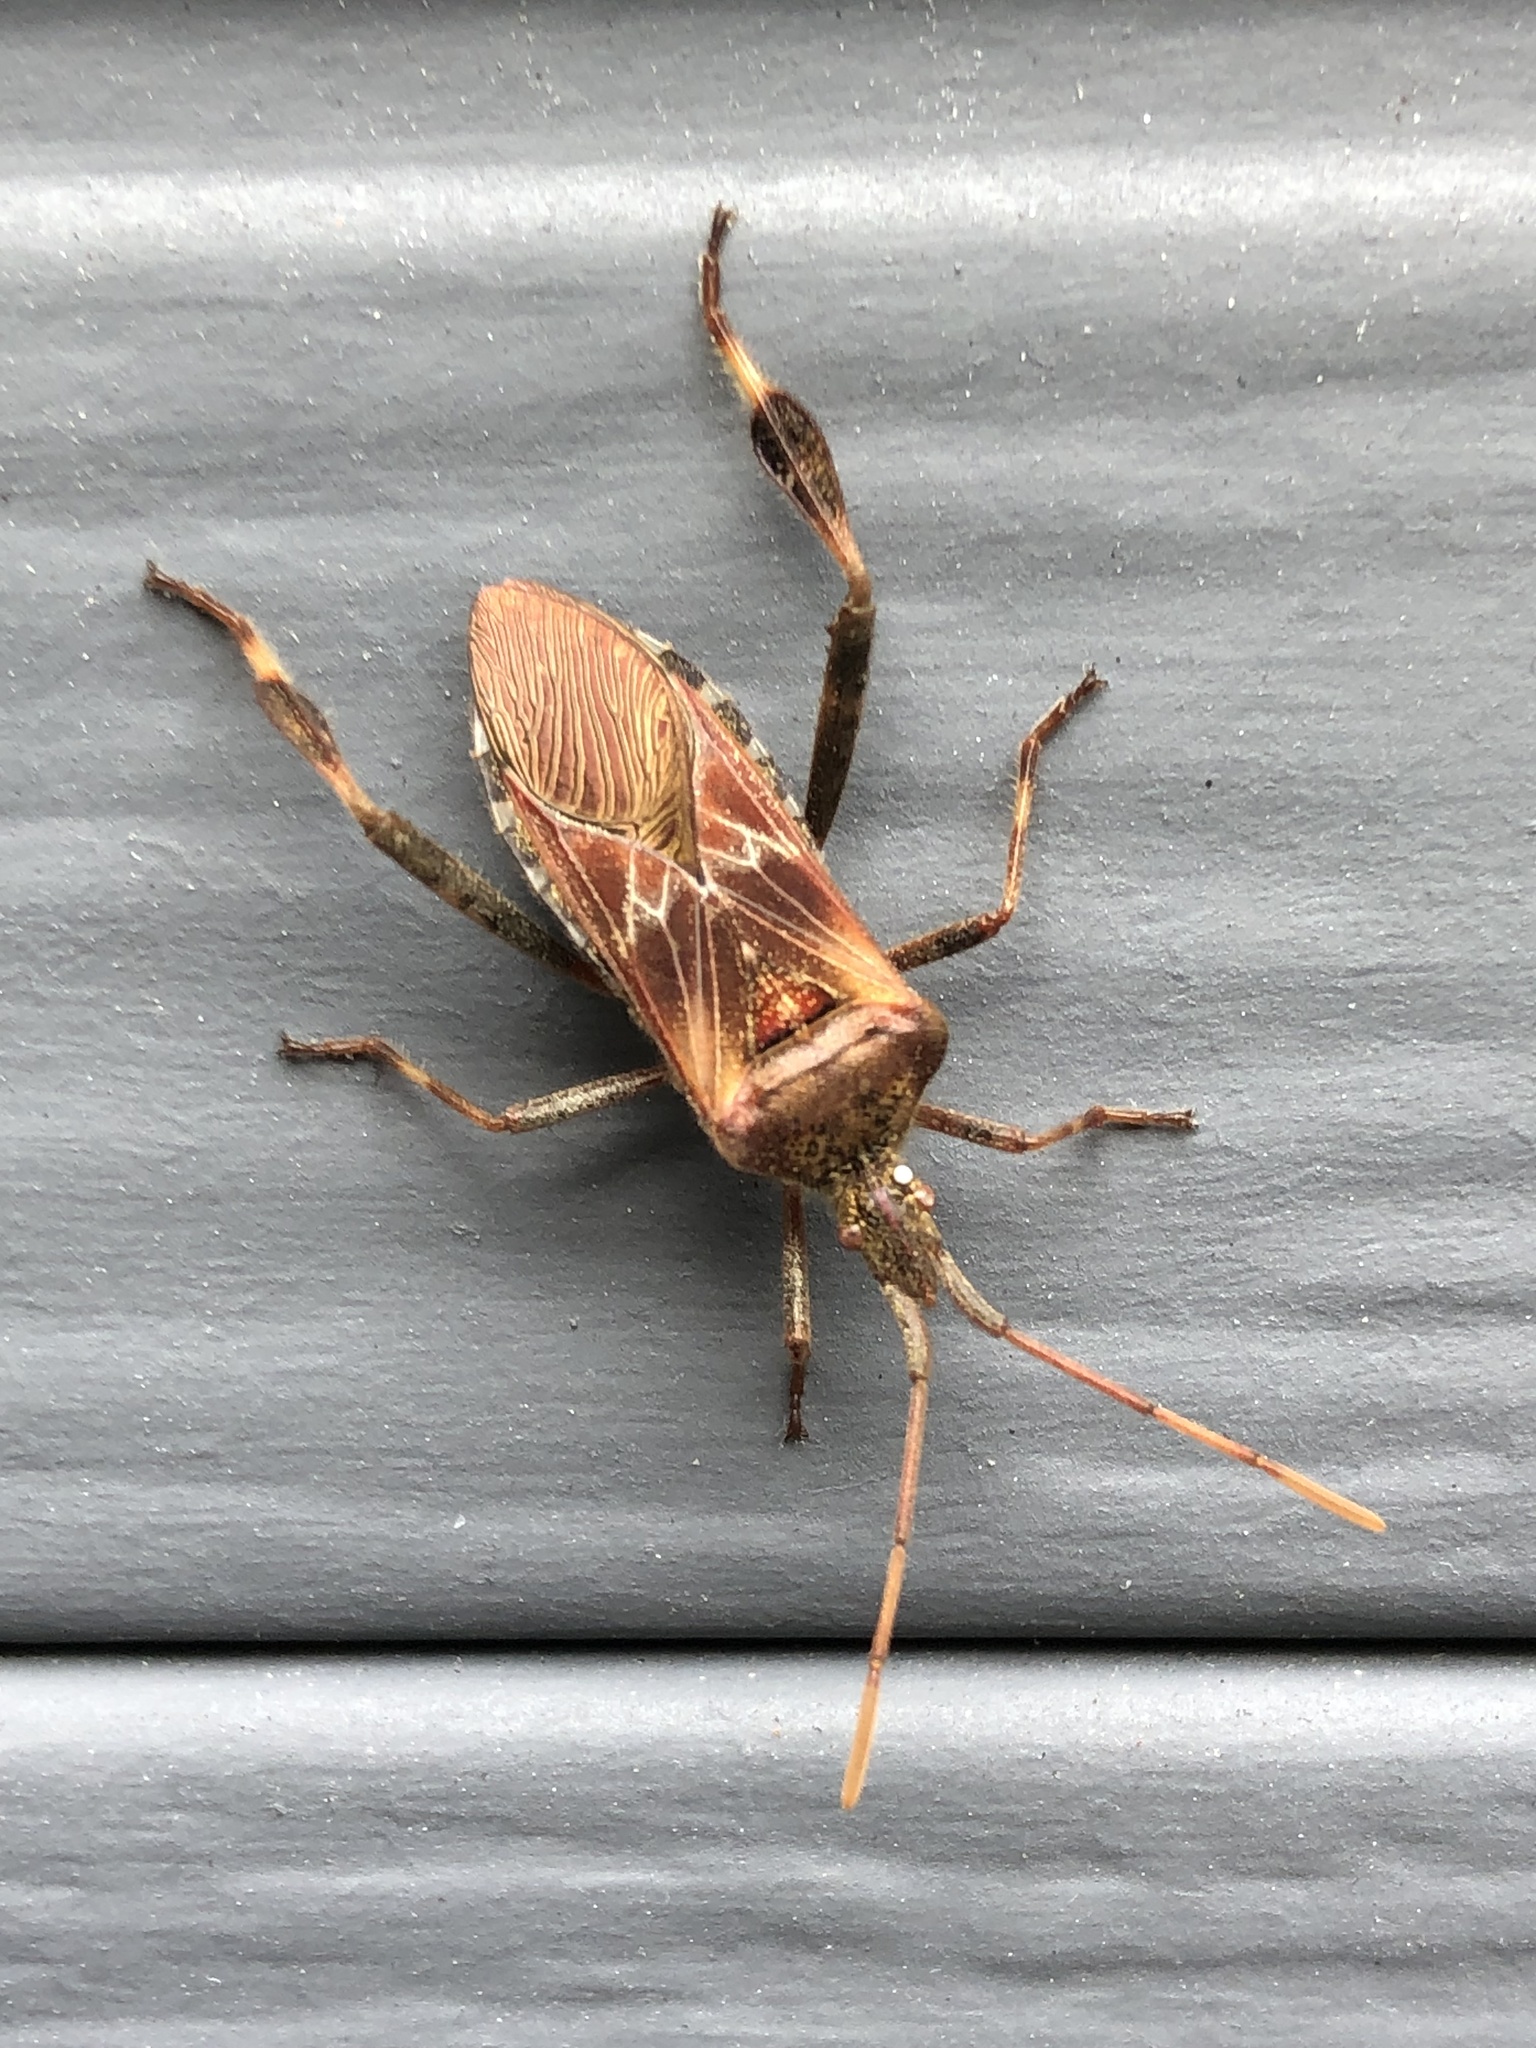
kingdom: Animalia
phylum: Arthropoda
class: Insecta
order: Hemiptera
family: Coreidae
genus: Leptoglossus
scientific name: Leptoglossus occidentalis
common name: Western conifer-seed bug
